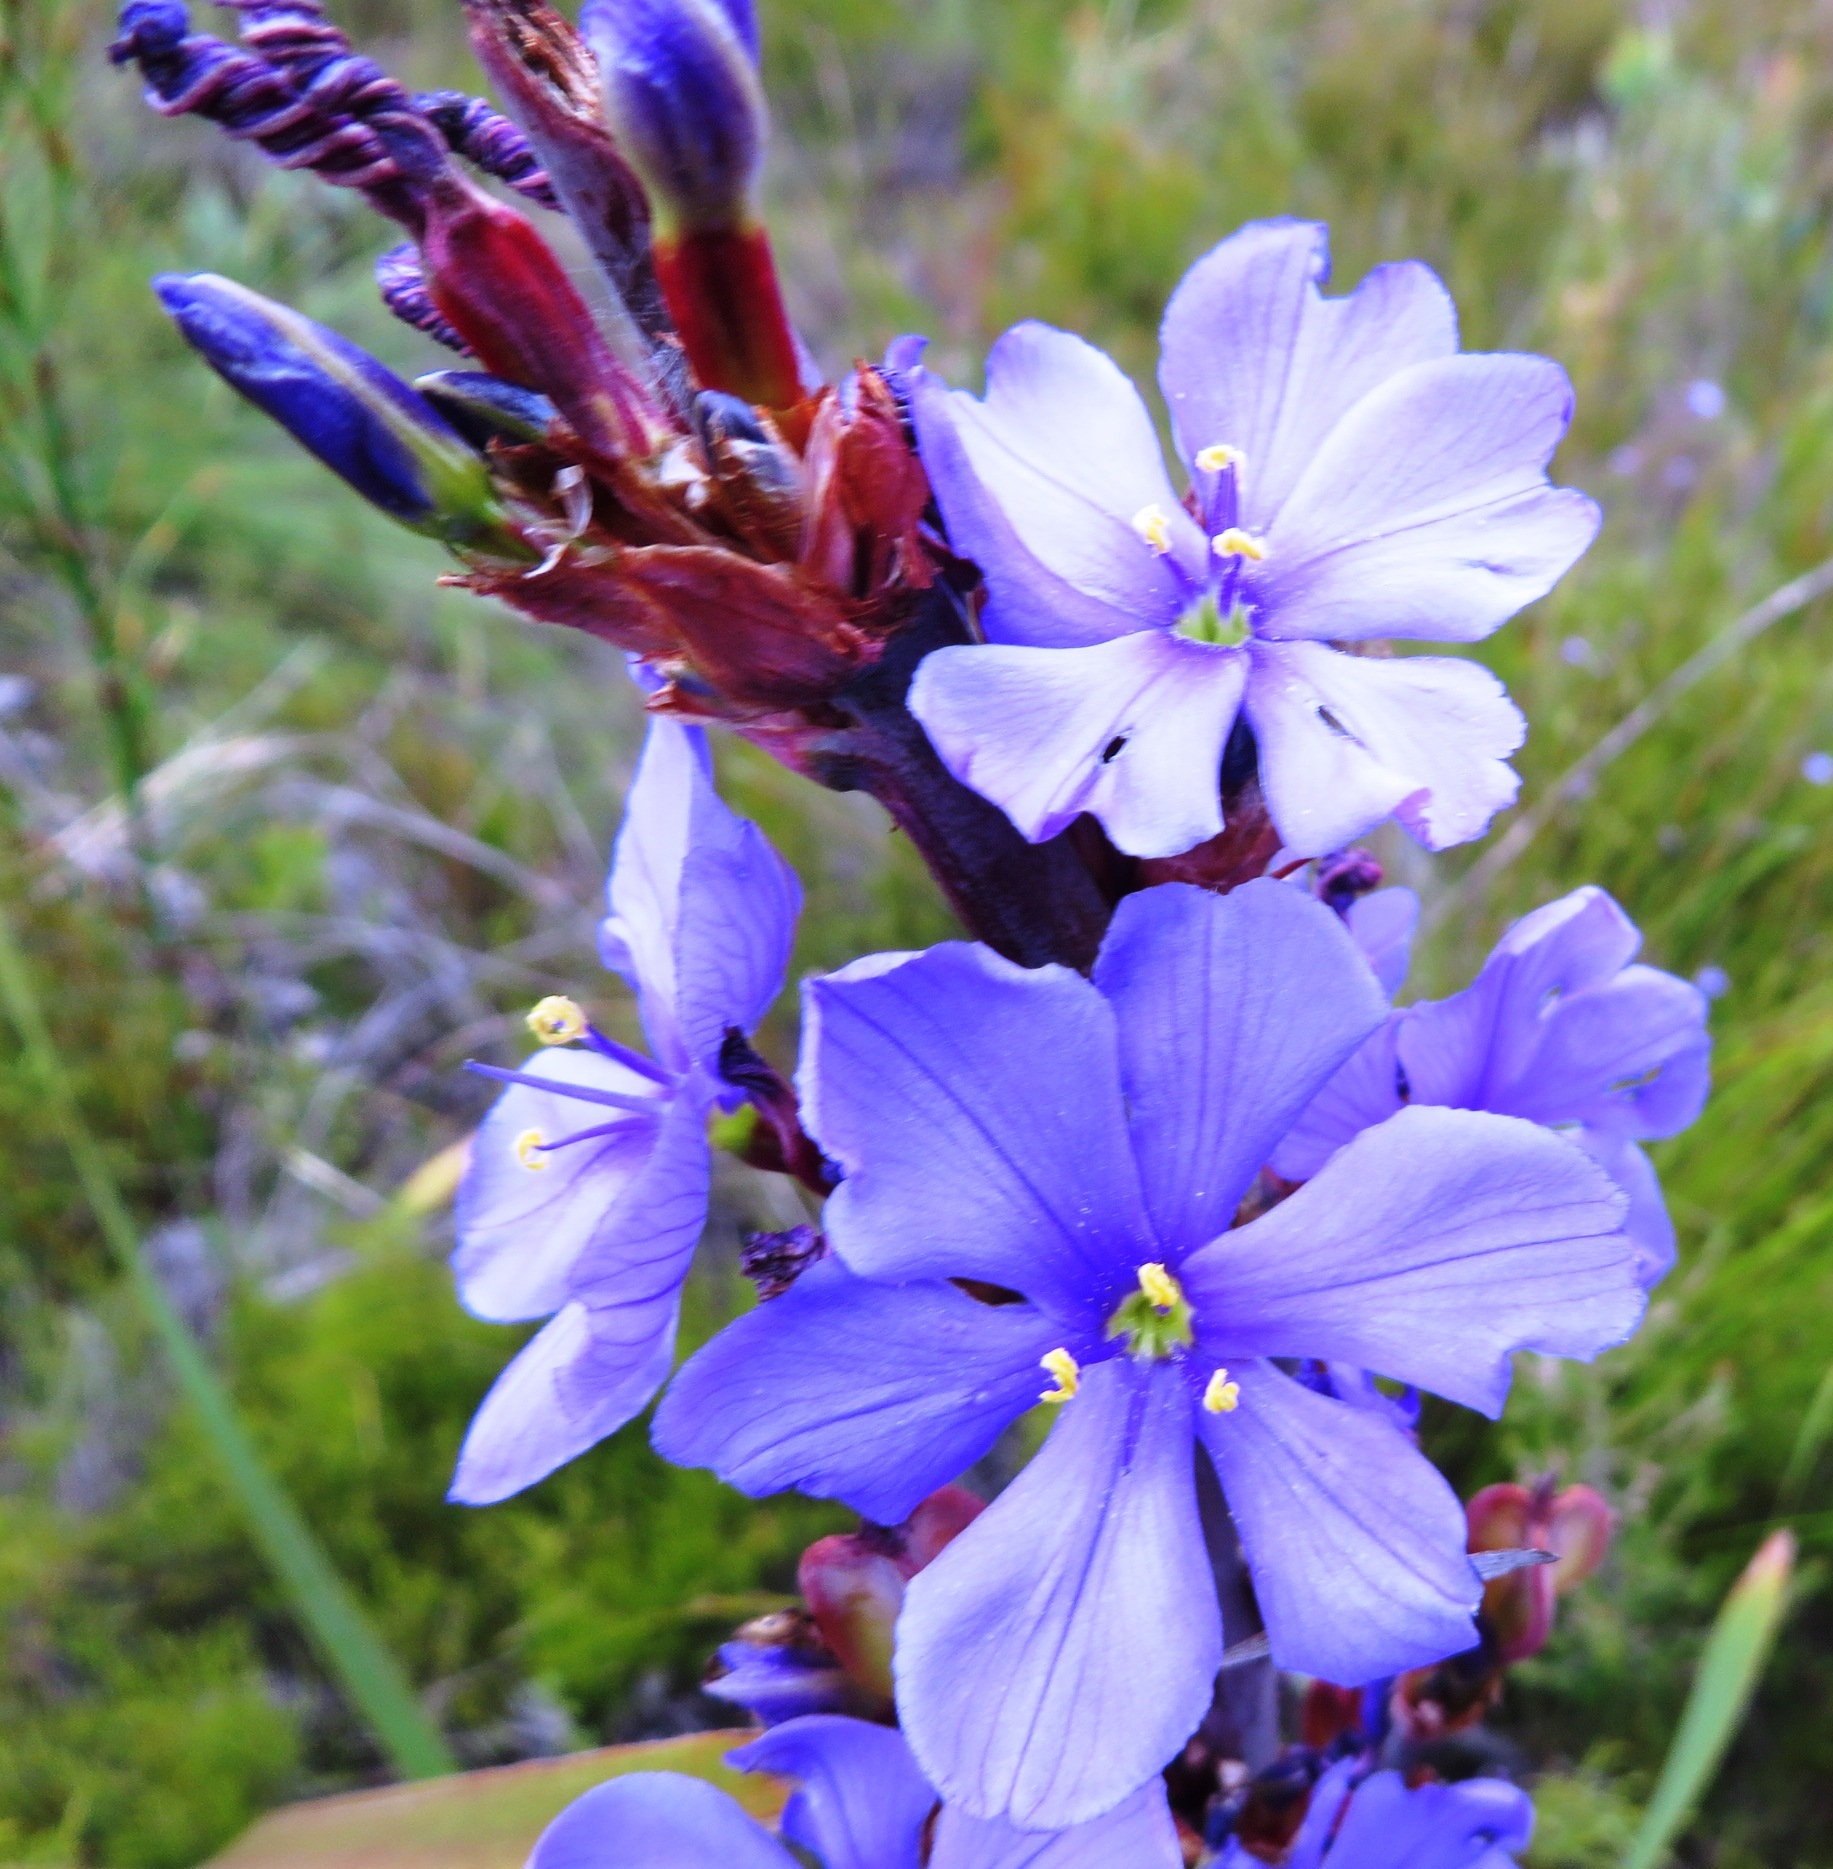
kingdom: Plantae
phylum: Tracheophyta
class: Liliopsida
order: Asparagales
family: Iridaceae
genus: Aristea
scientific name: Aristea capitata
